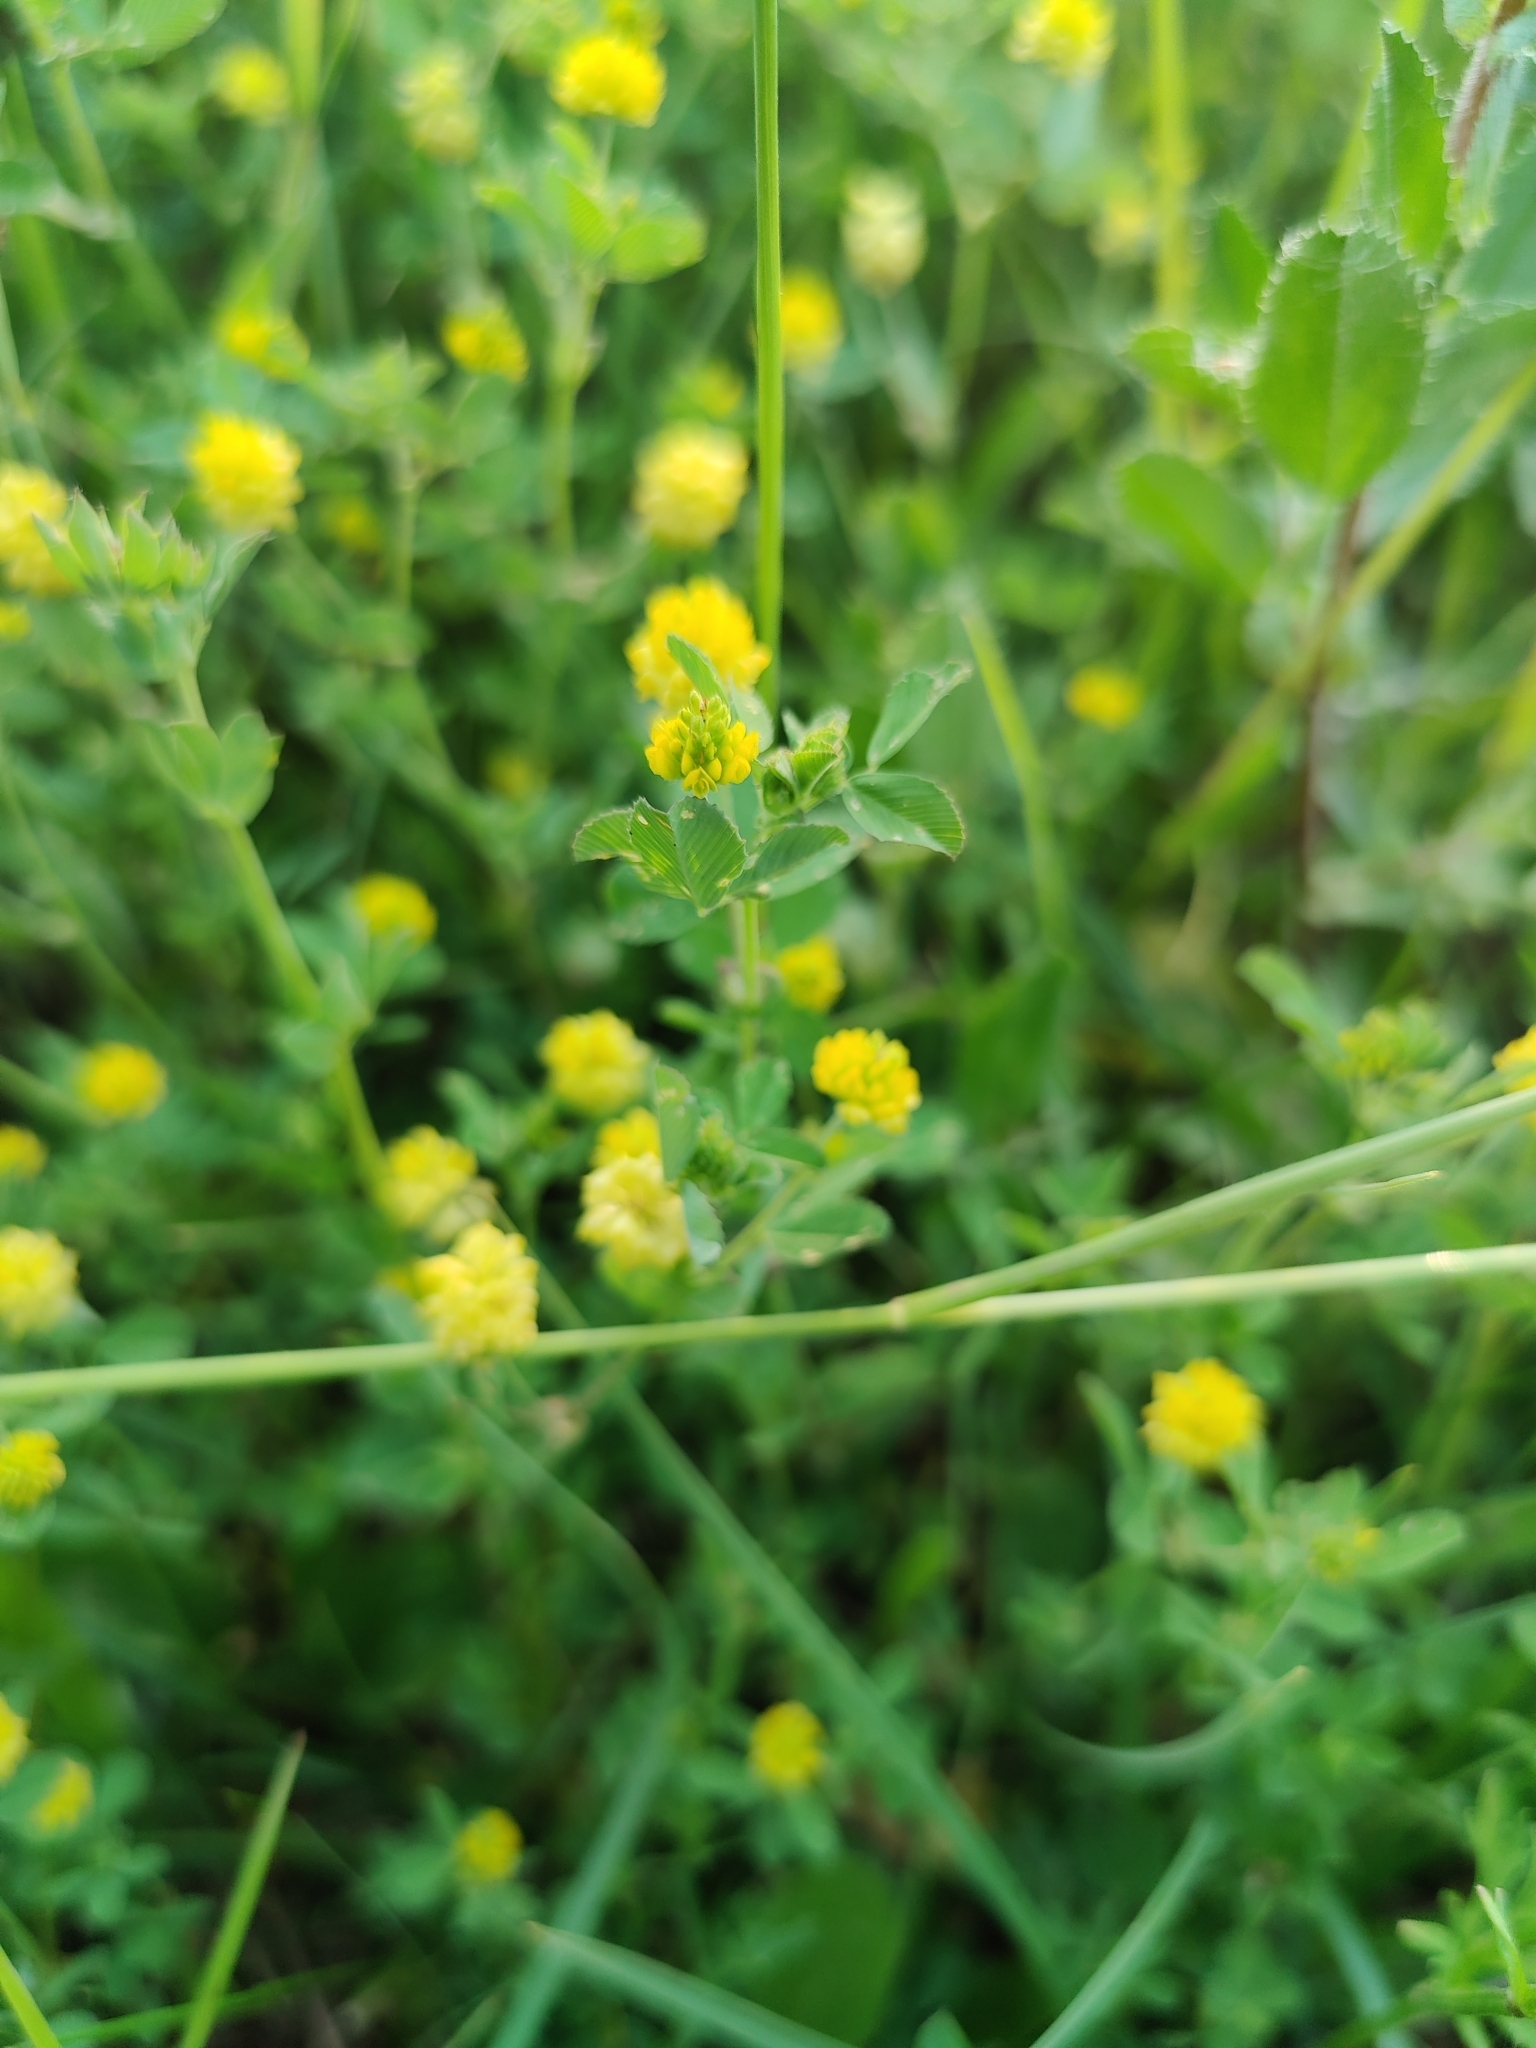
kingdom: Plantae
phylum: Tracheophyta
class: Magnoliopsida
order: Fabales
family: Fabaceae
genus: Trifolium
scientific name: Trifolium campestre
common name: Field clover
